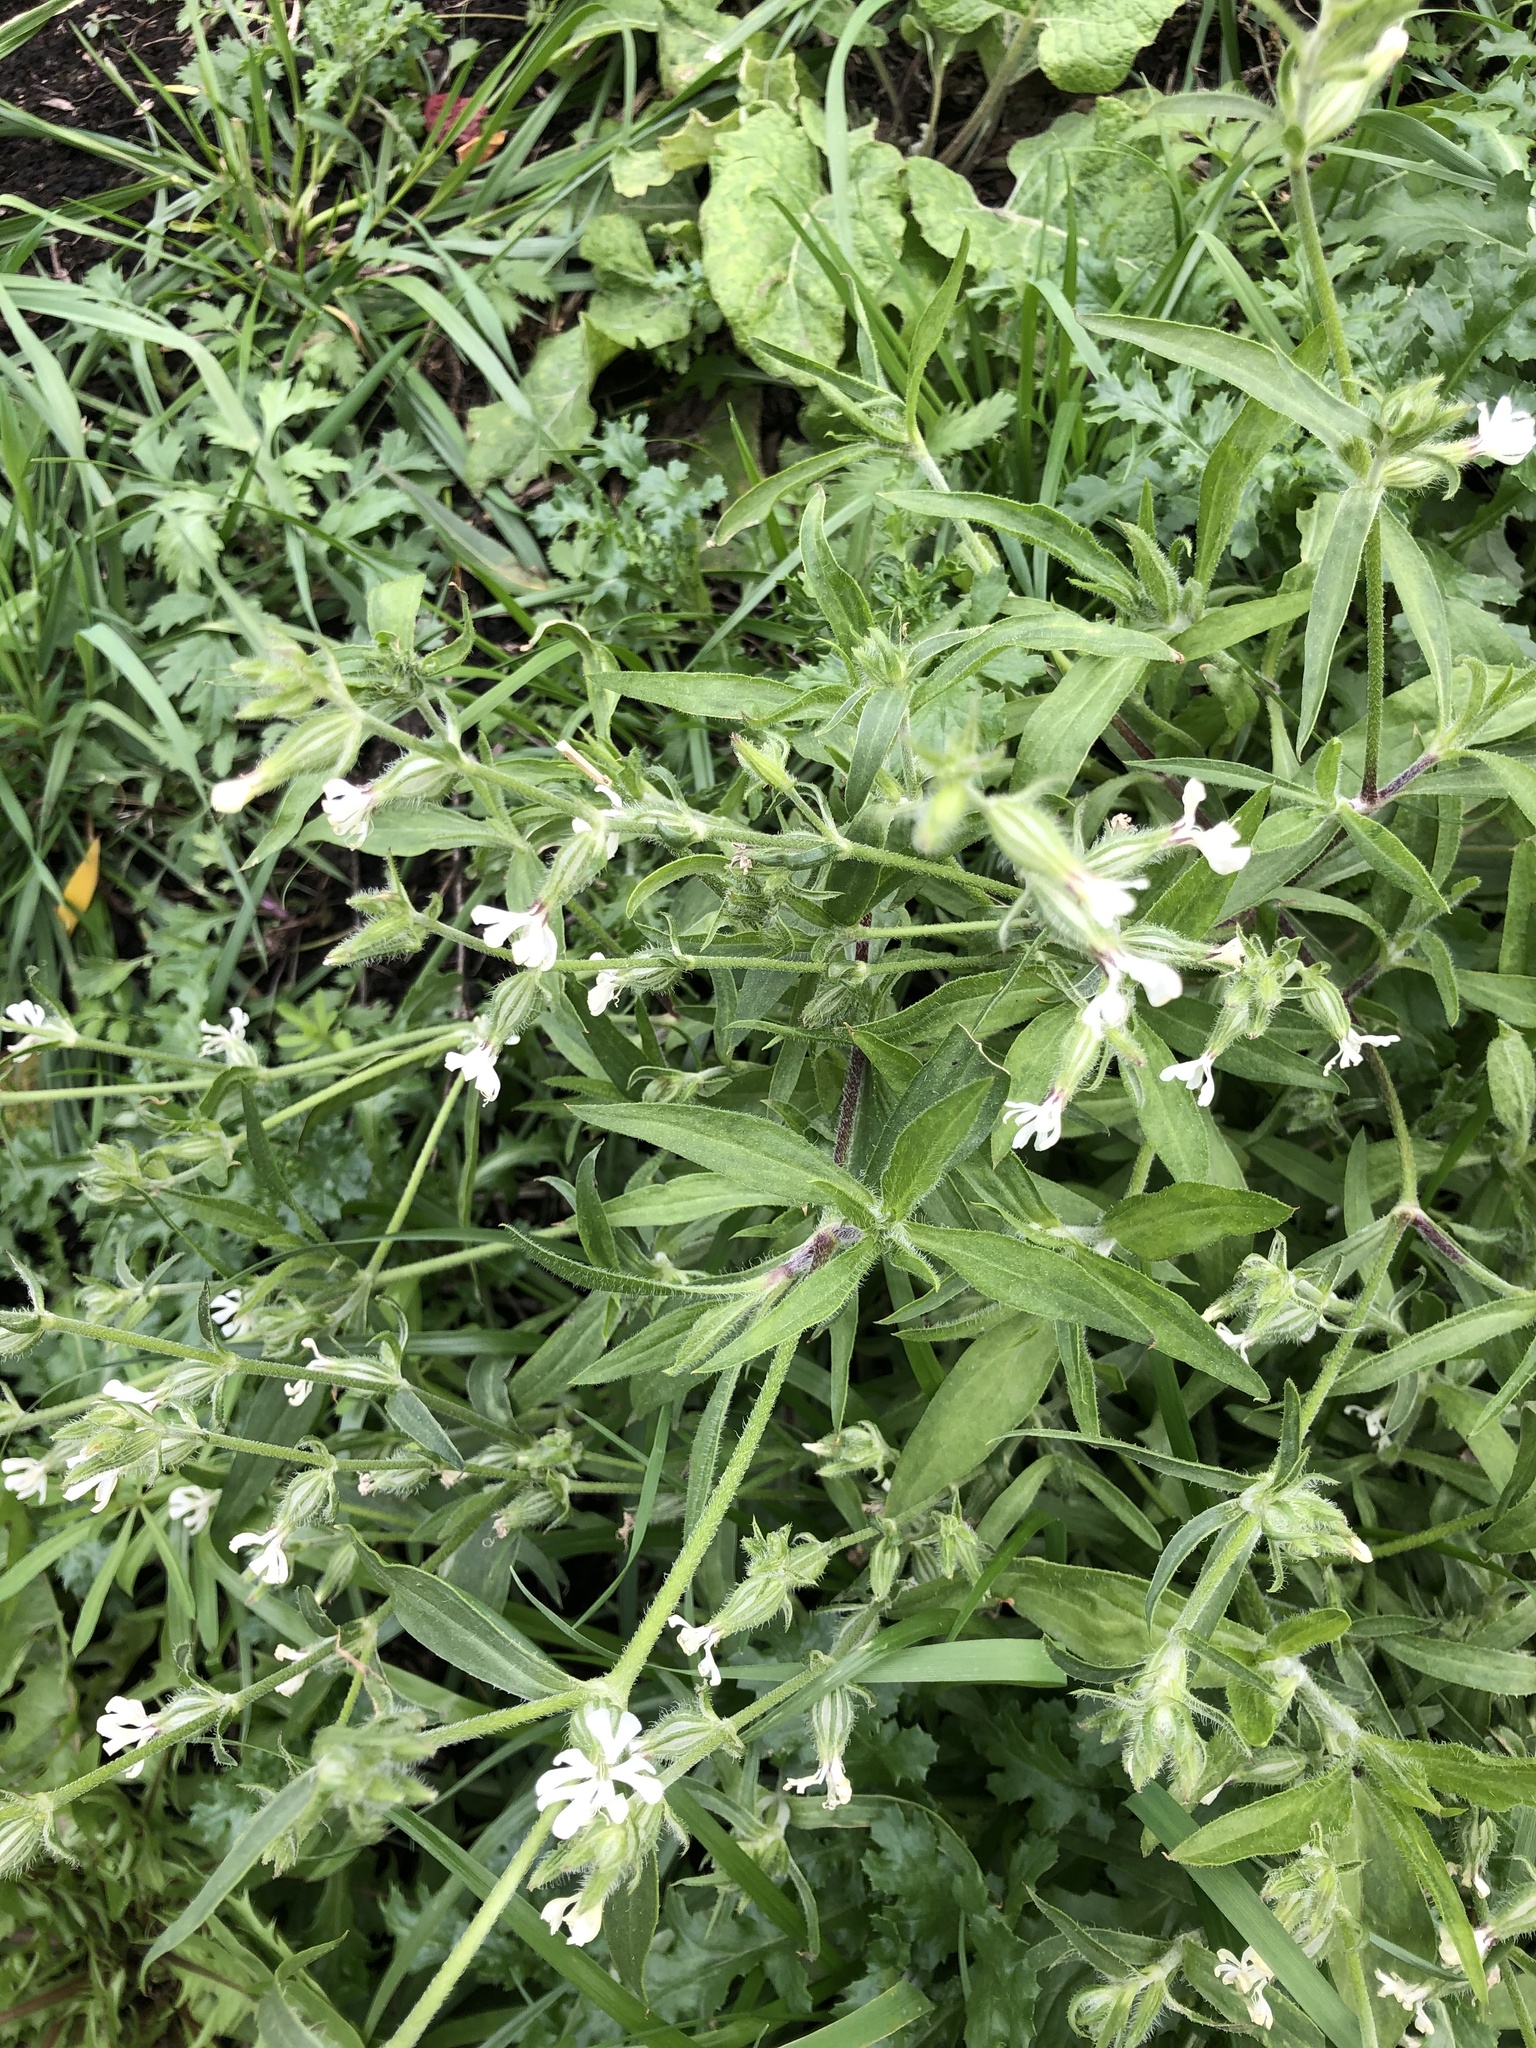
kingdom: Plantae
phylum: Tracheophyta
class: Magnoliopsida
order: Caryophyllales
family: Caryophyllaceae
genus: Silene
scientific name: Silene dichotoma
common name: Forked catchfly
